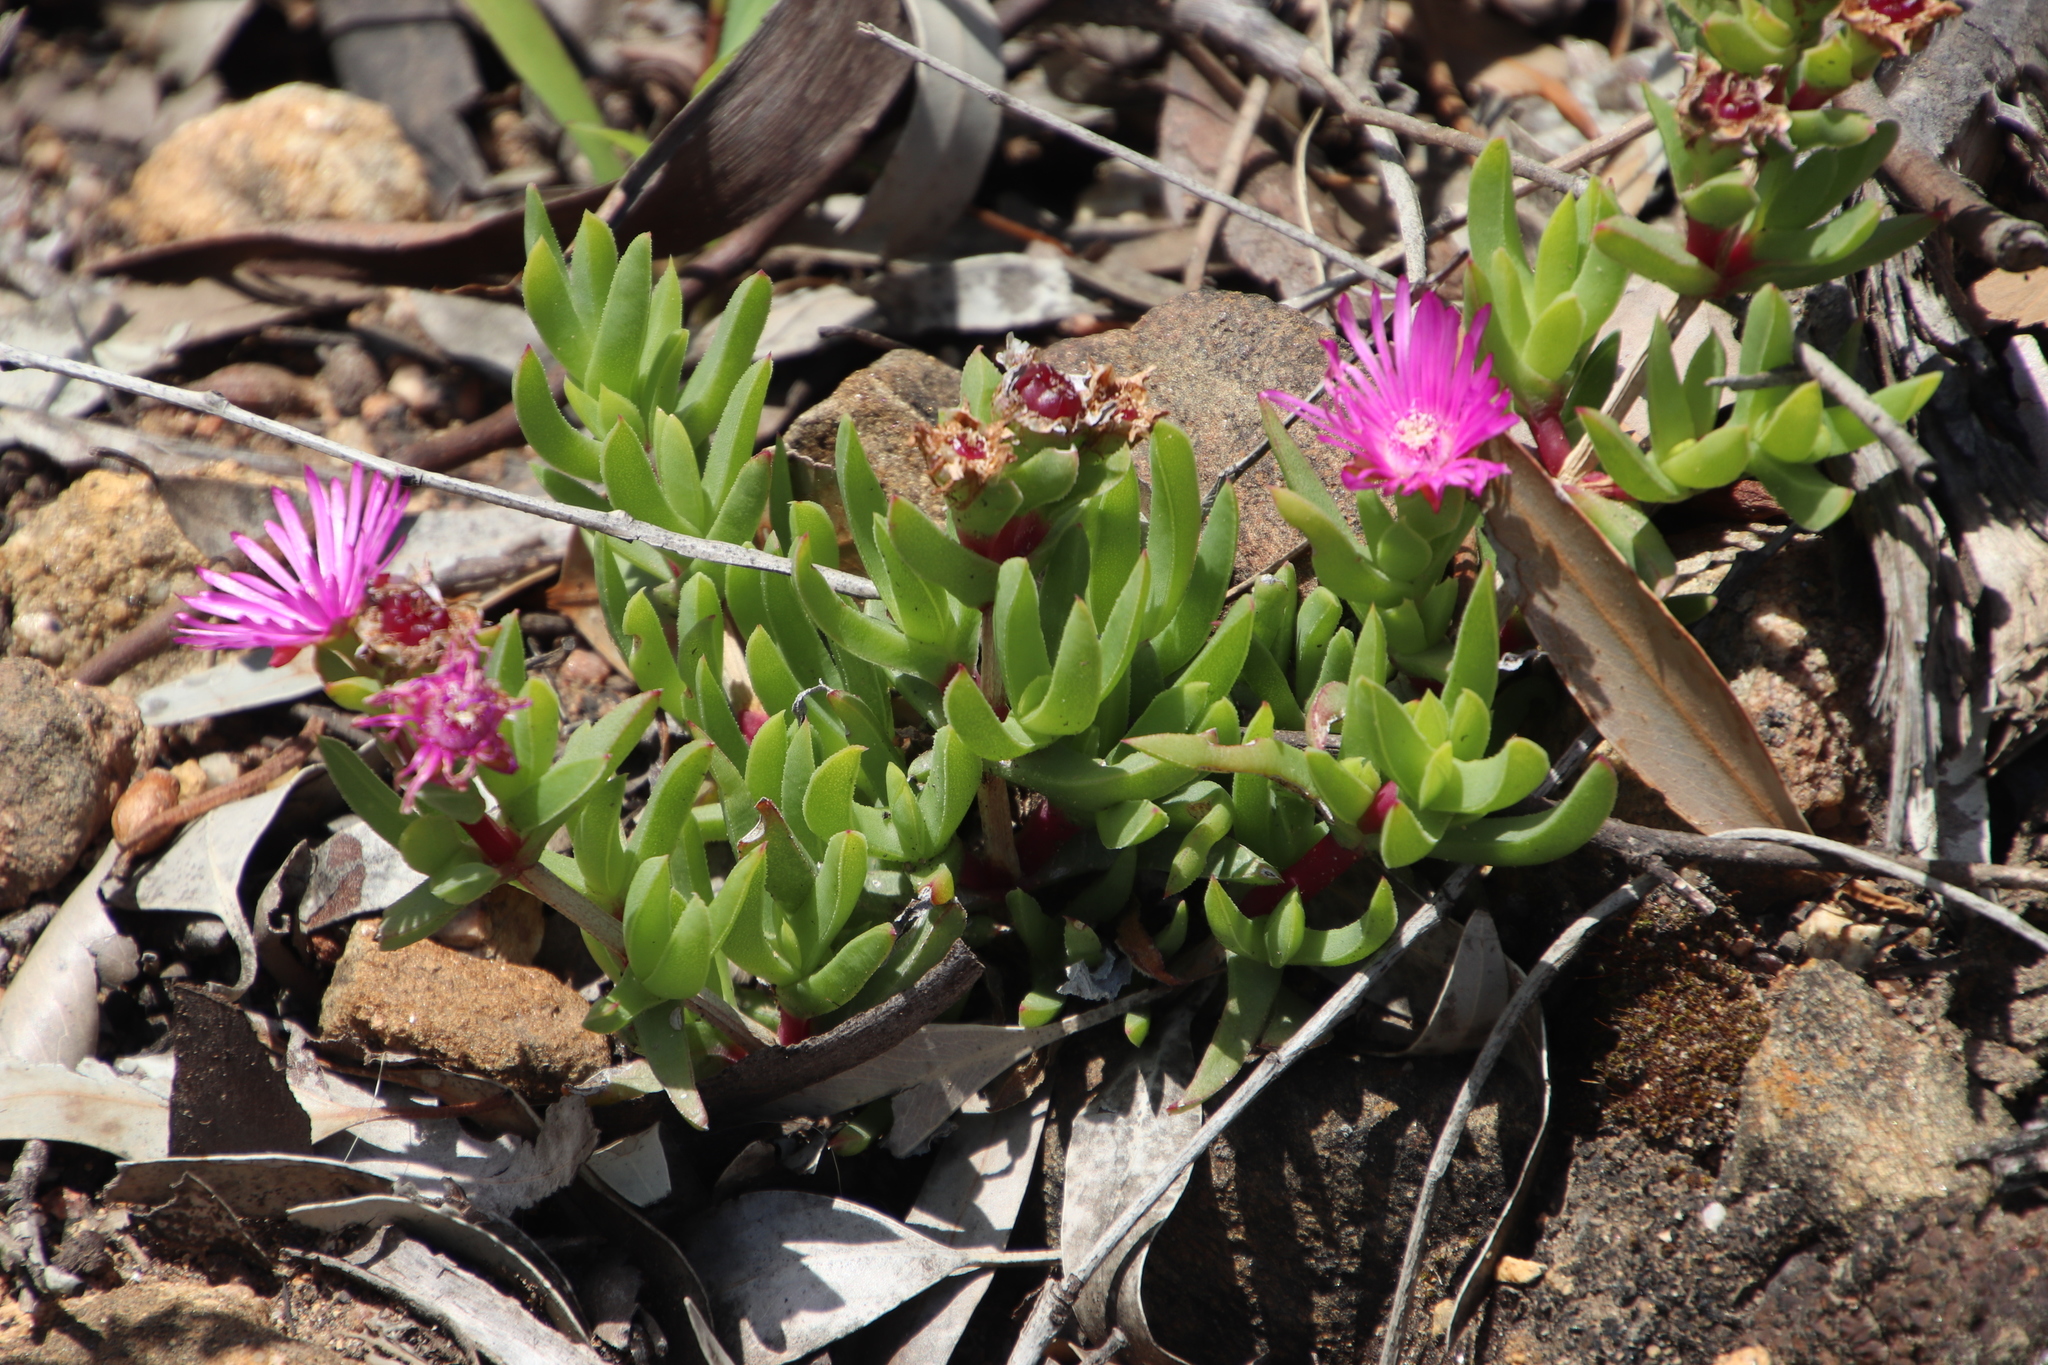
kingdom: Plantae
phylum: Tracheophyta
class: Magnoliopsida
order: Caryophyllales
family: Aizoaceae
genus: Ruschia
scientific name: Ruschia rubricaulis
